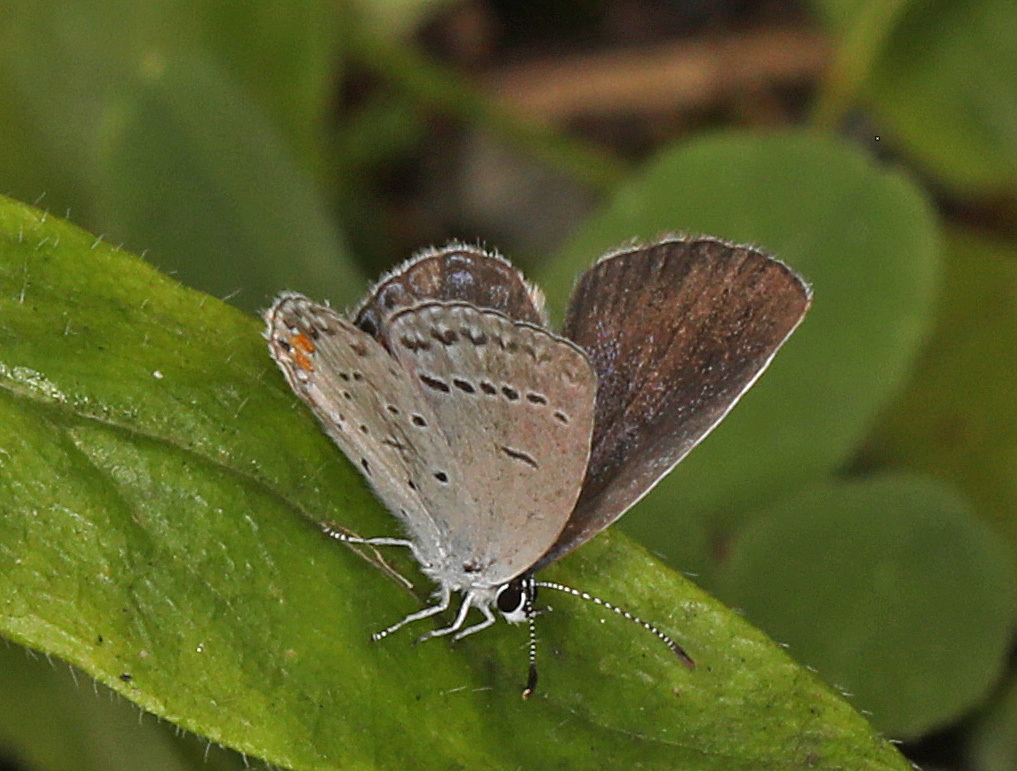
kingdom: Animalia
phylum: Arthropoda
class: Insecta
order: Lepidoptera
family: Lycaenidae
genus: Elkalyce
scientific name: Elkalyce comyntas
